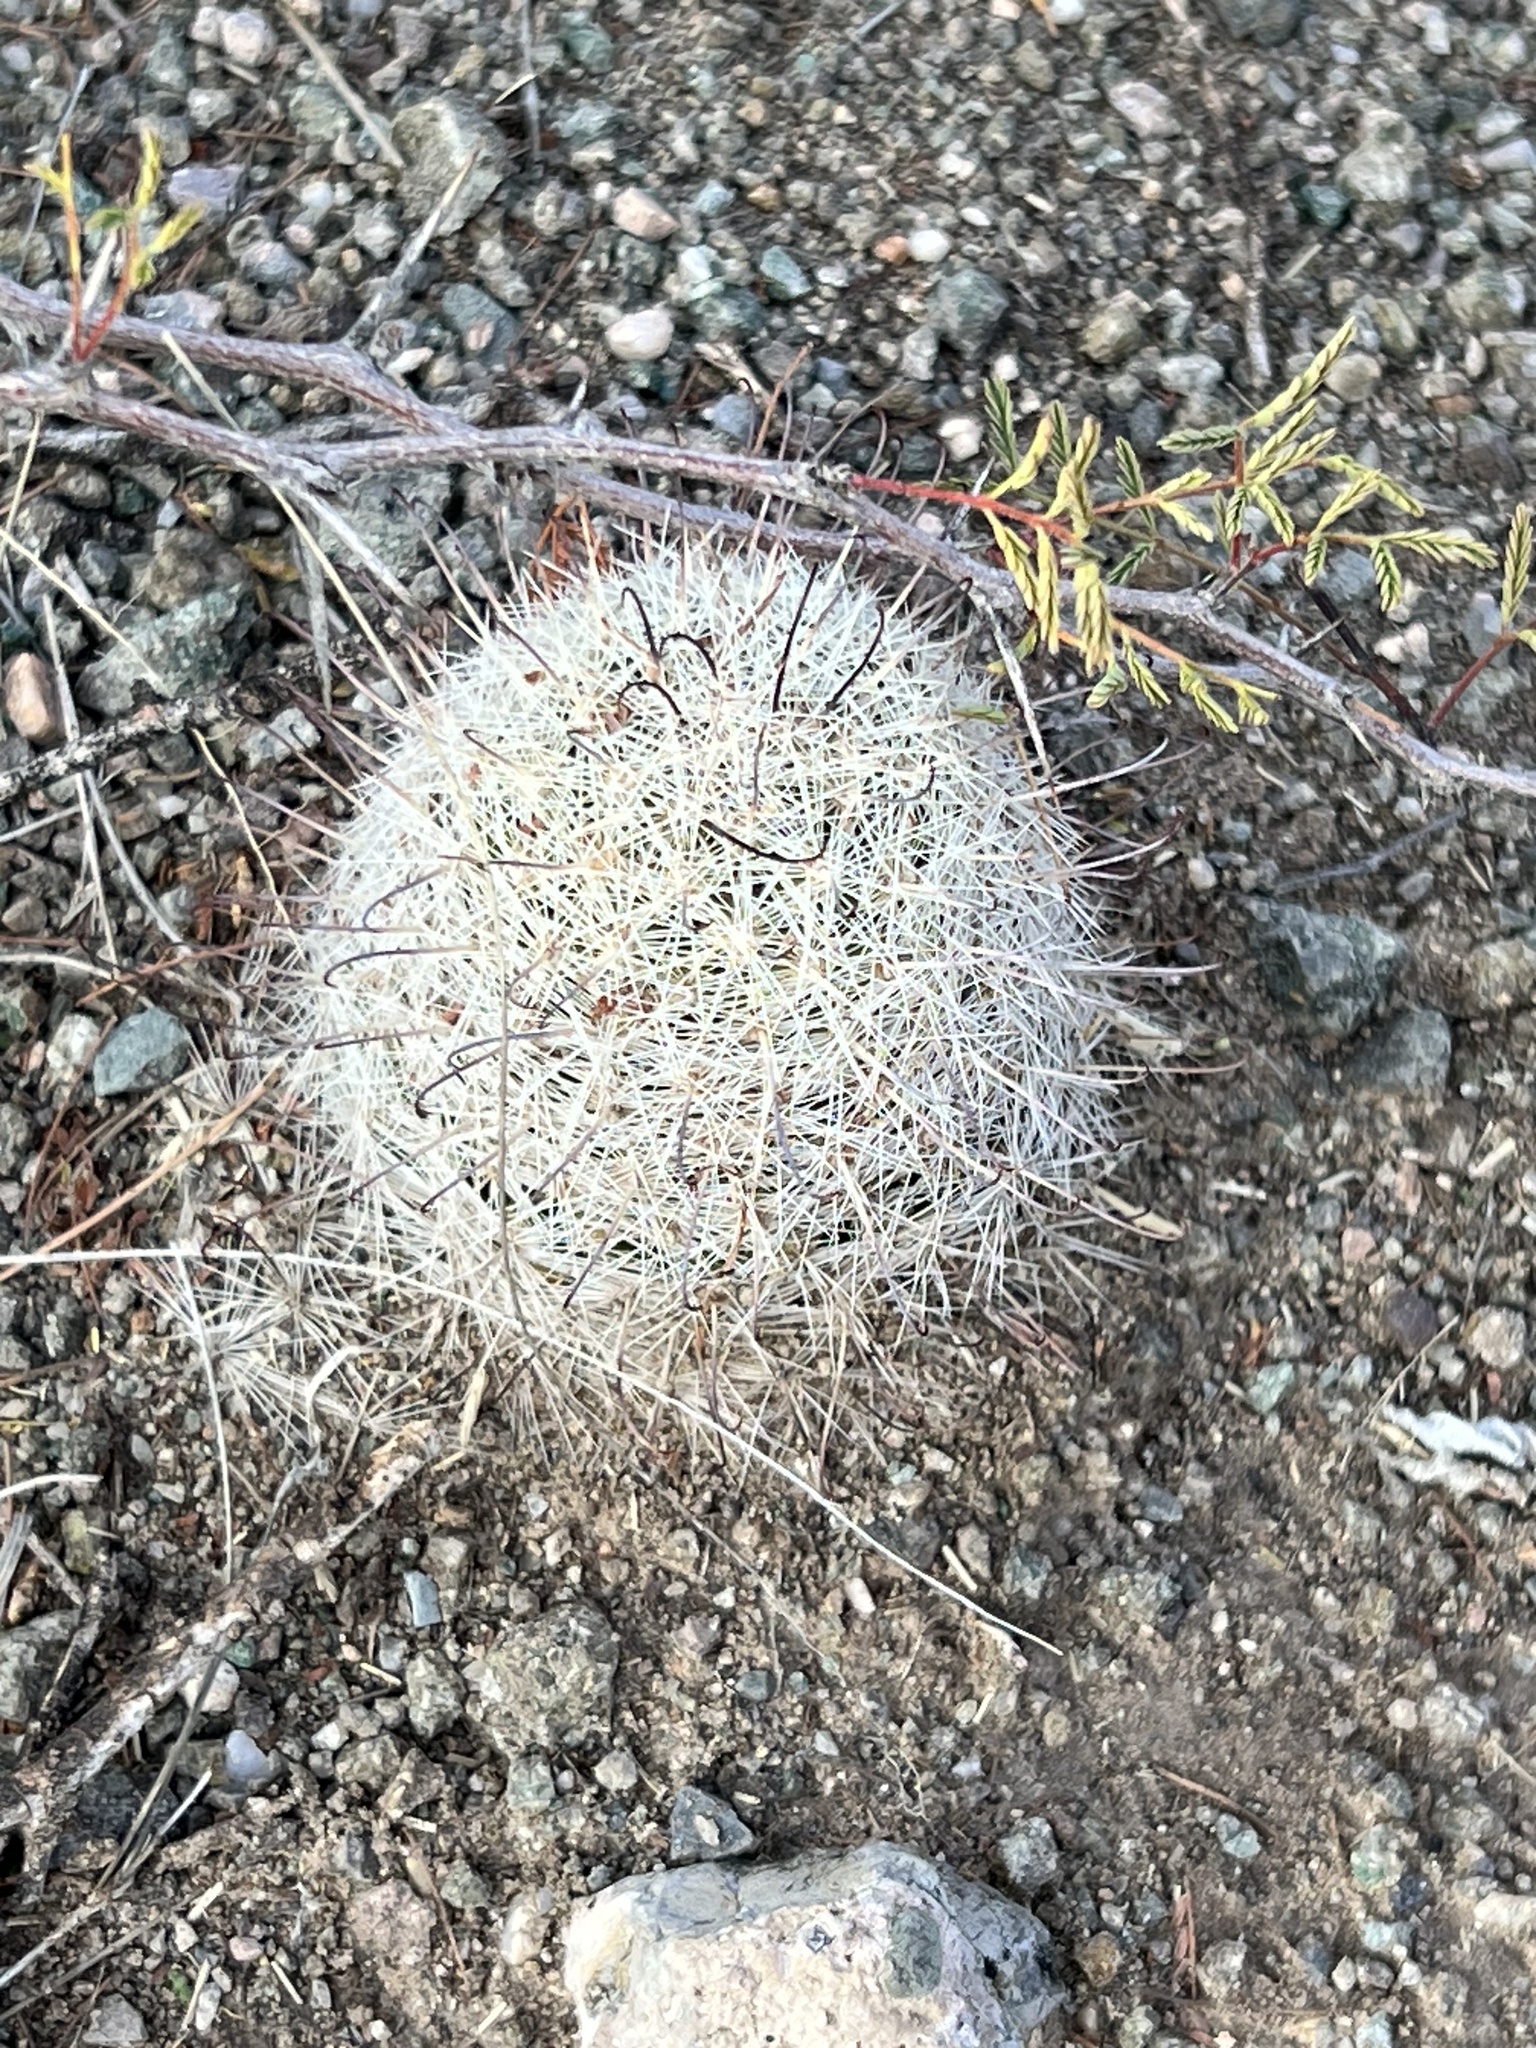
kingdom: Plantae
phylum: Tracheophyta
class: Magnoliopsida
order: Caryophyllales
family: Cactaceae
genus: Cochemiea
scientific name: Cochemiea grahamii
